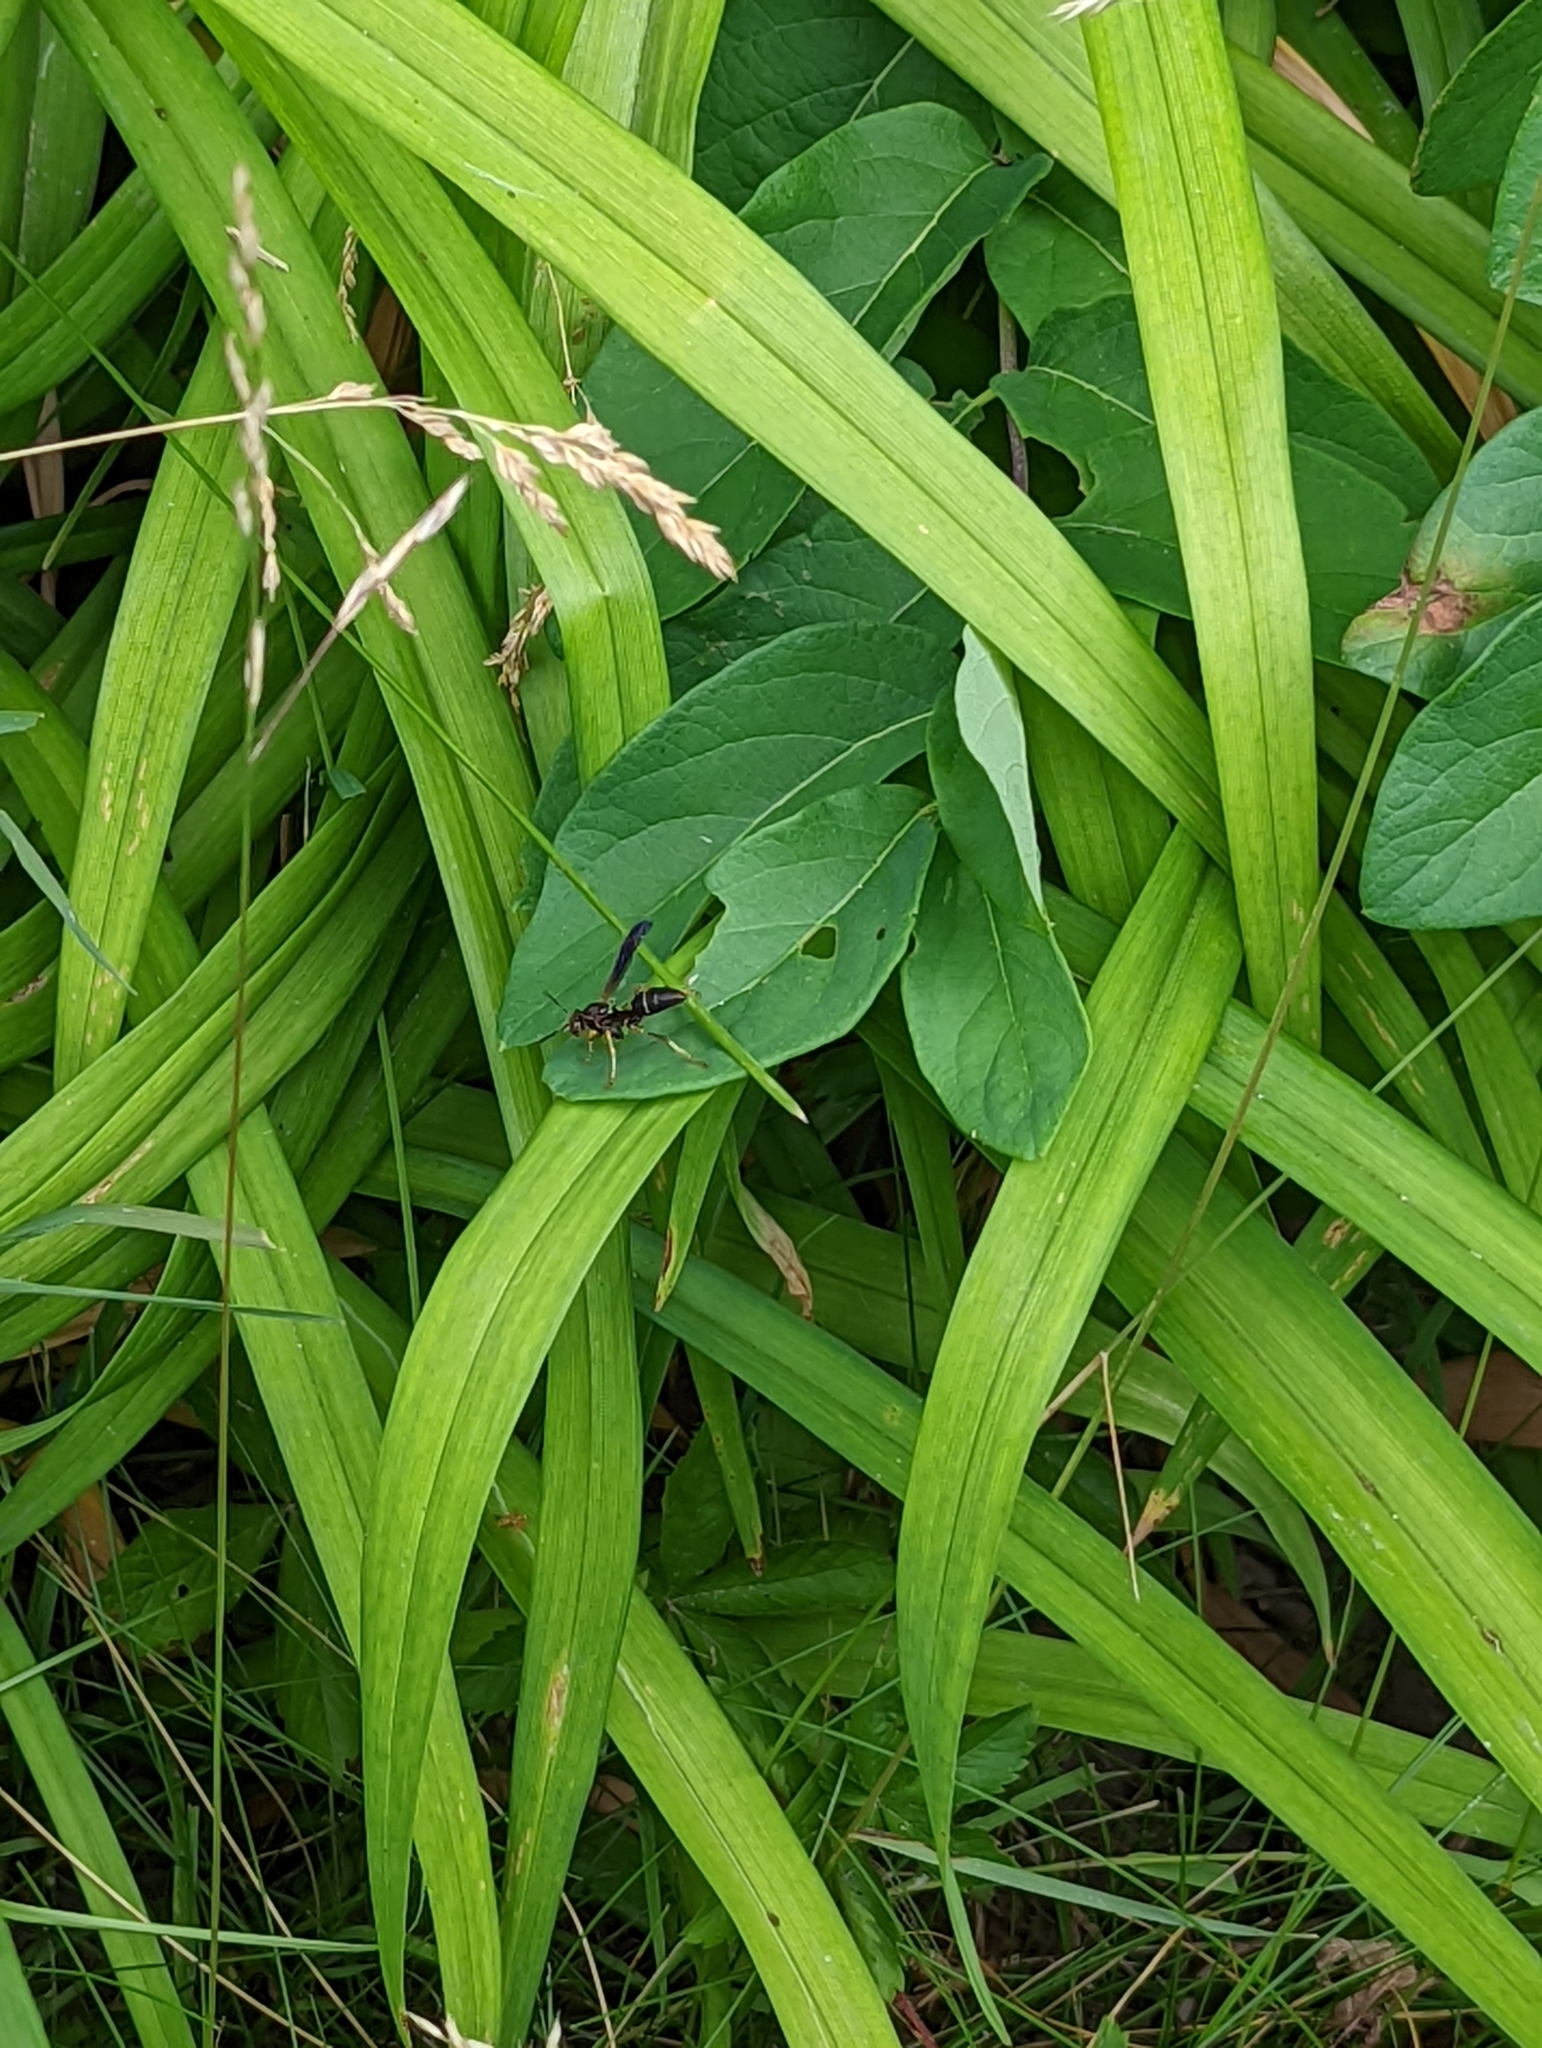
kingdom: Animalia
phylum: Arthropoda
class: Insecta
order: Hymenoptera
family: Eumenidae
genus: Polistes
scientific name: Polistes fuscatus
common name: Dark paper wasp
